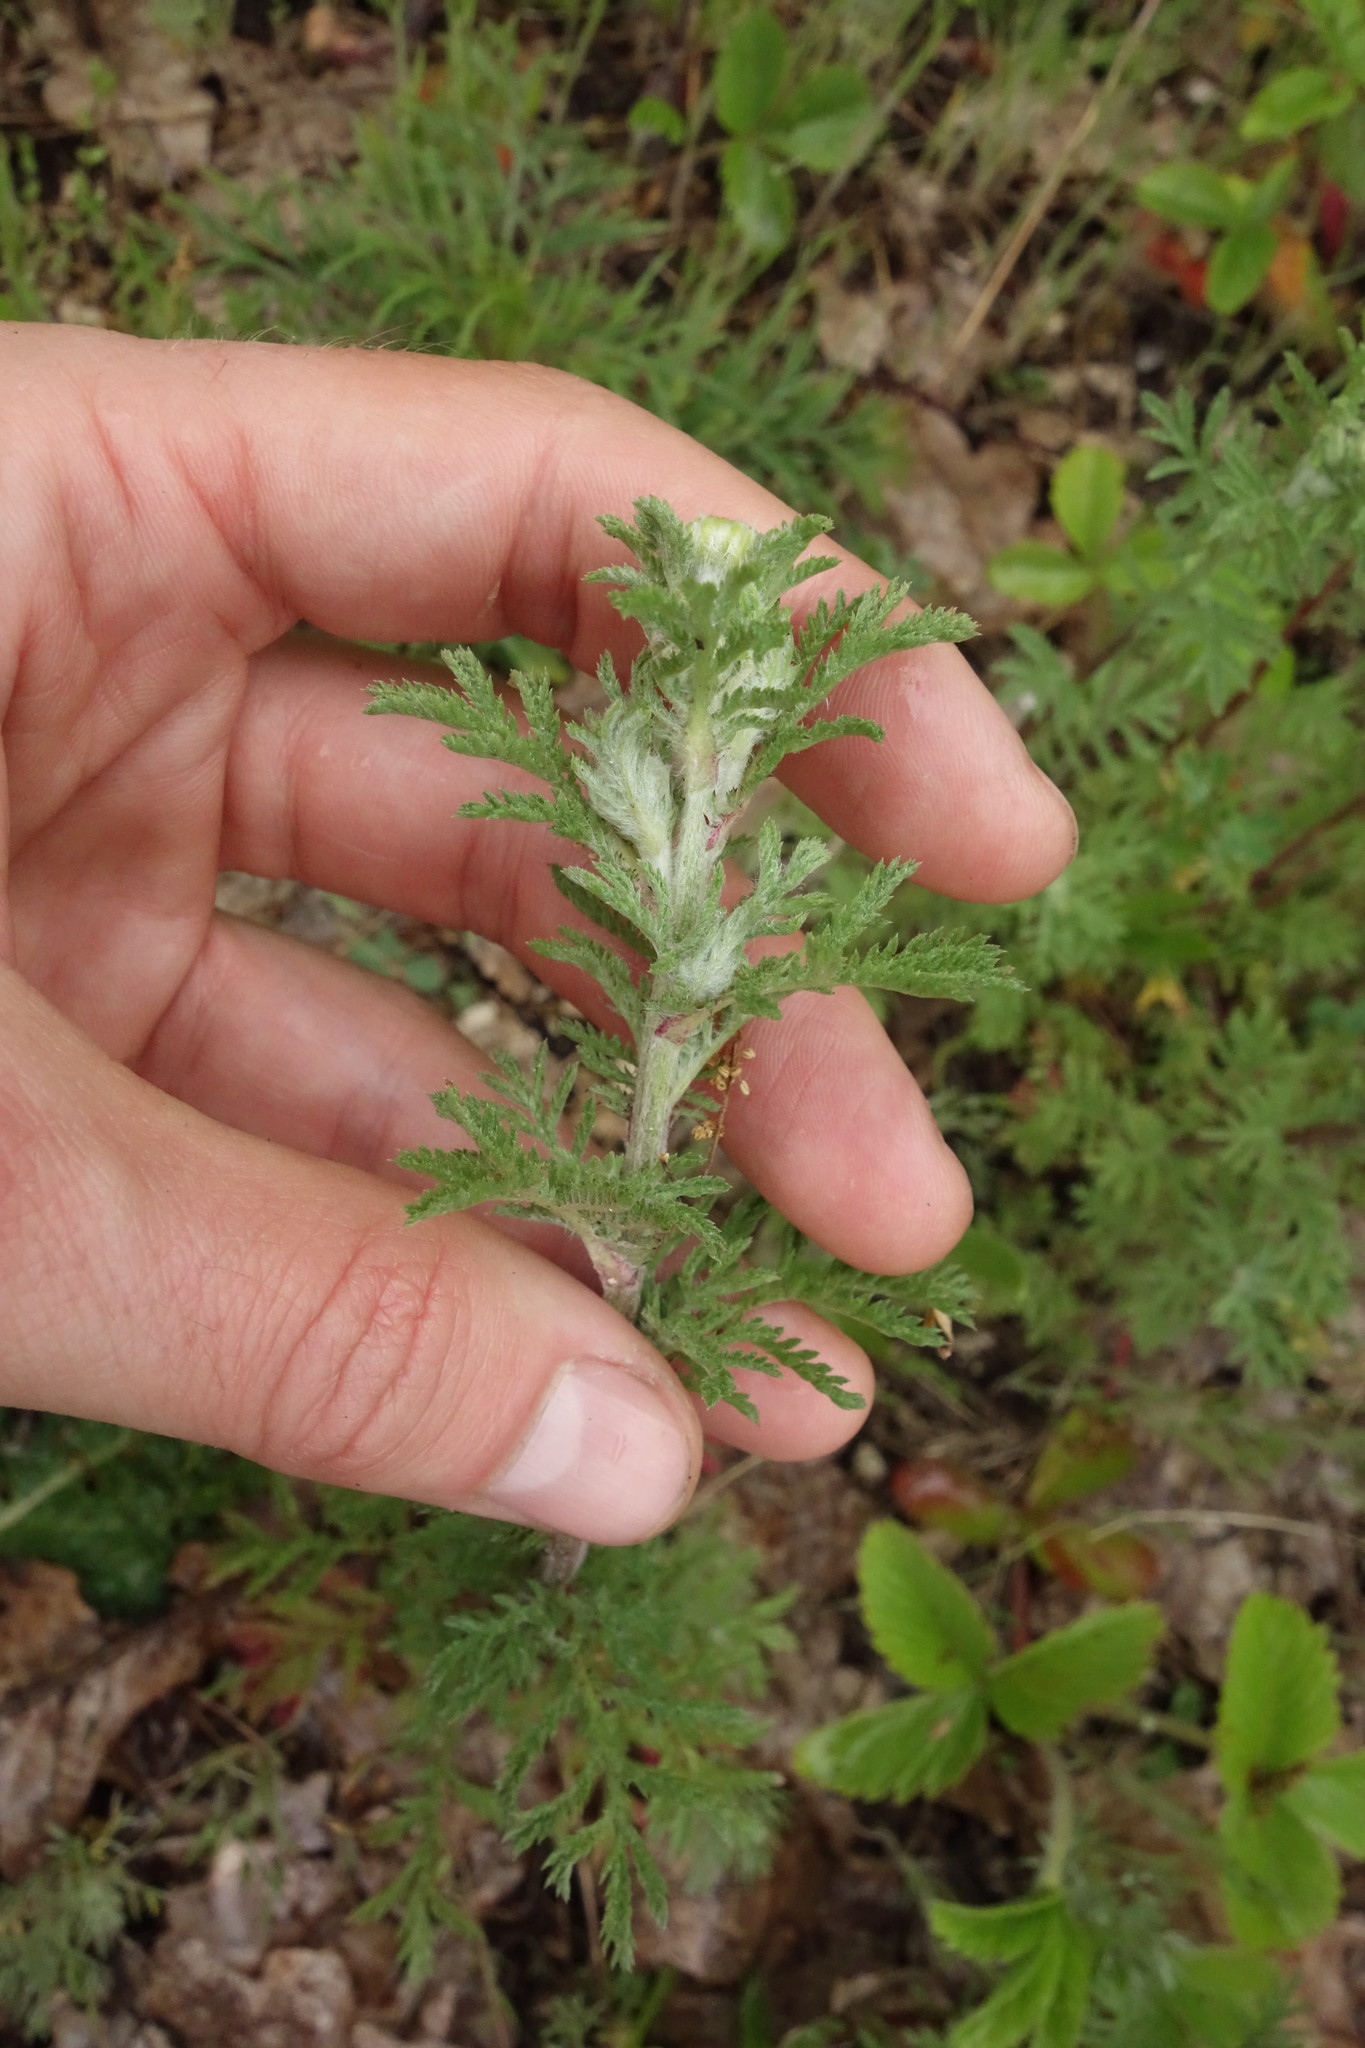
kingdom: Plantae
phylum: Tracheophyta
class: Magnoliopsida
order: Asterales
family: Asteraceae
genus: Cota
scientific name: Cota tinctoria
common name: Golden chamomile
